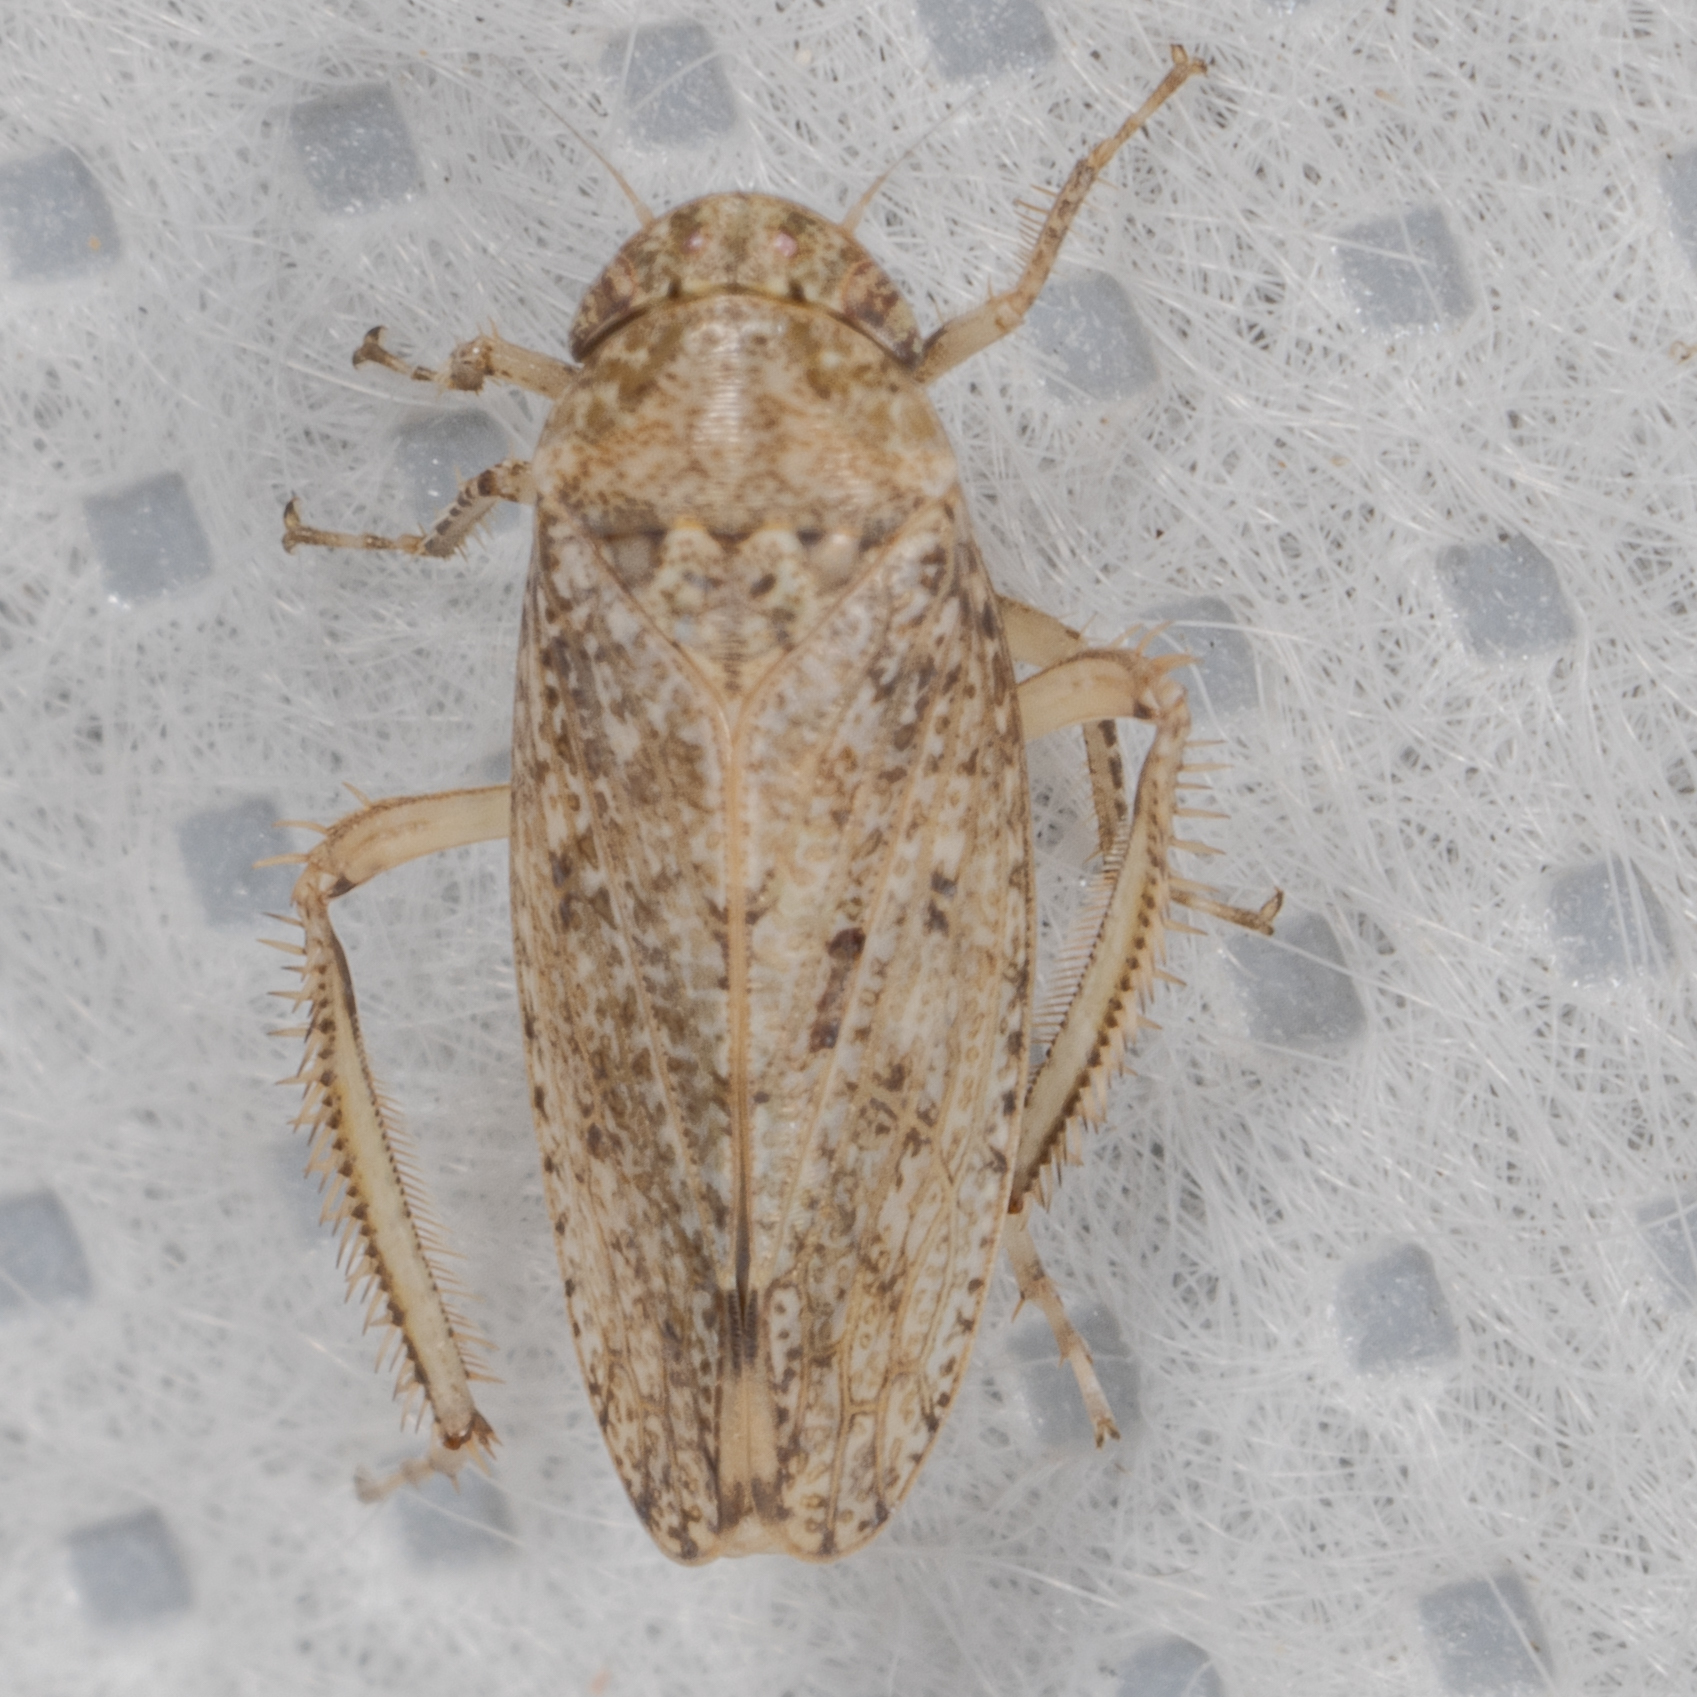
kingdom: Animalia
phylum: Arthropoda
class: Insecta
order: Hemiptera
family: Cicadellidae
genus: Curtara
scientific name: Curtara insularis
